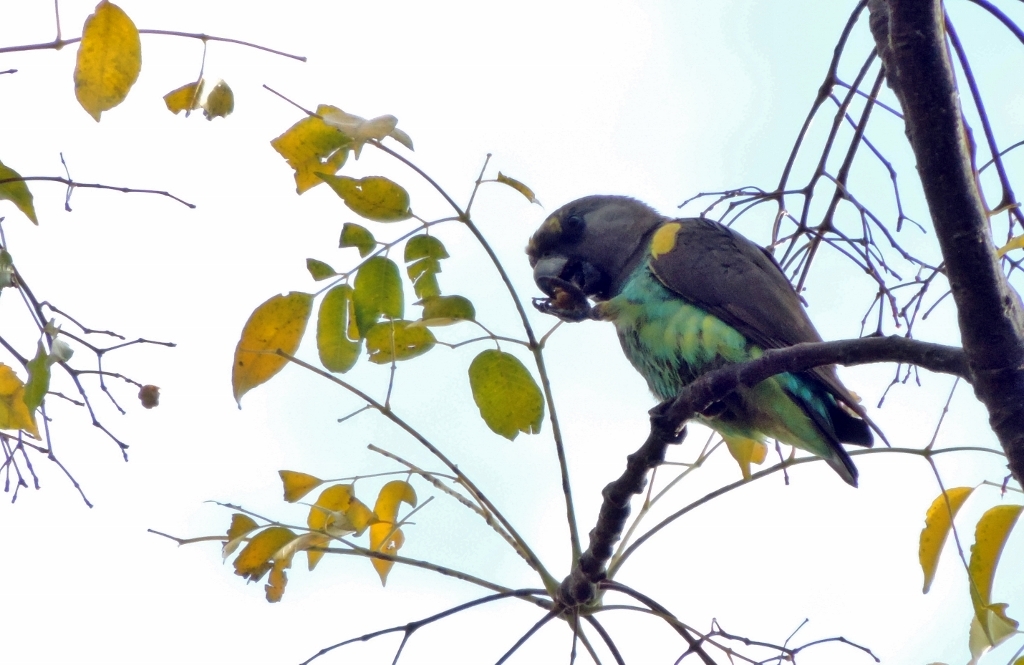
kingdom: Animalia
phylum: Chordata
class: Aves
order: Psittaciformes
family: Psittacidae
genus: Poicephalus
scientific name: Poicephalus meyeri
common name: Meyer's parrot
